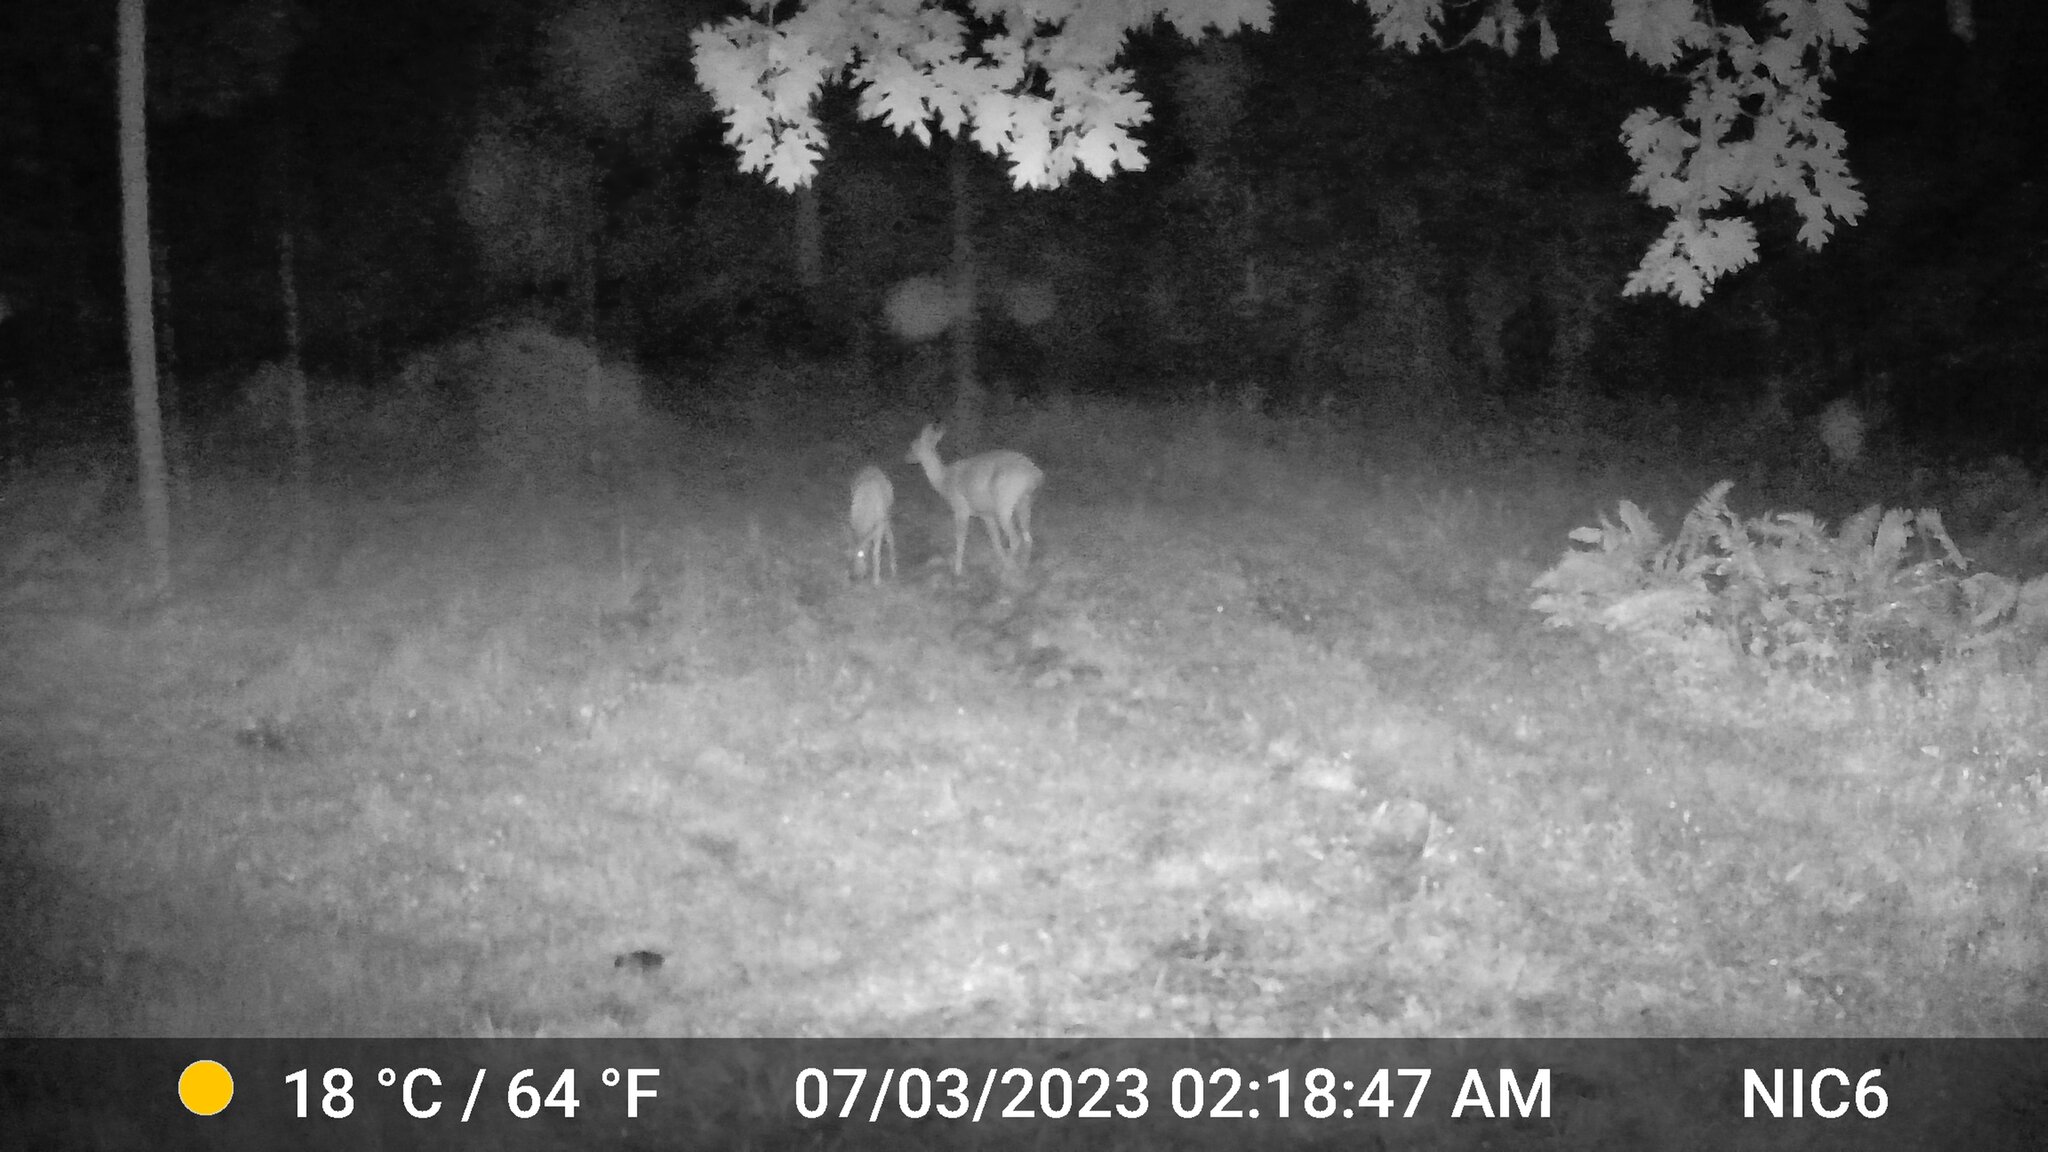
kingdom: Animalia
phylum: Chordata
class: Mammalia
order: Artiodactyla
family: Cervidae
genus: Odocoileus
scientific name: Odocoileus virginianus
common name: White-tailed deer
